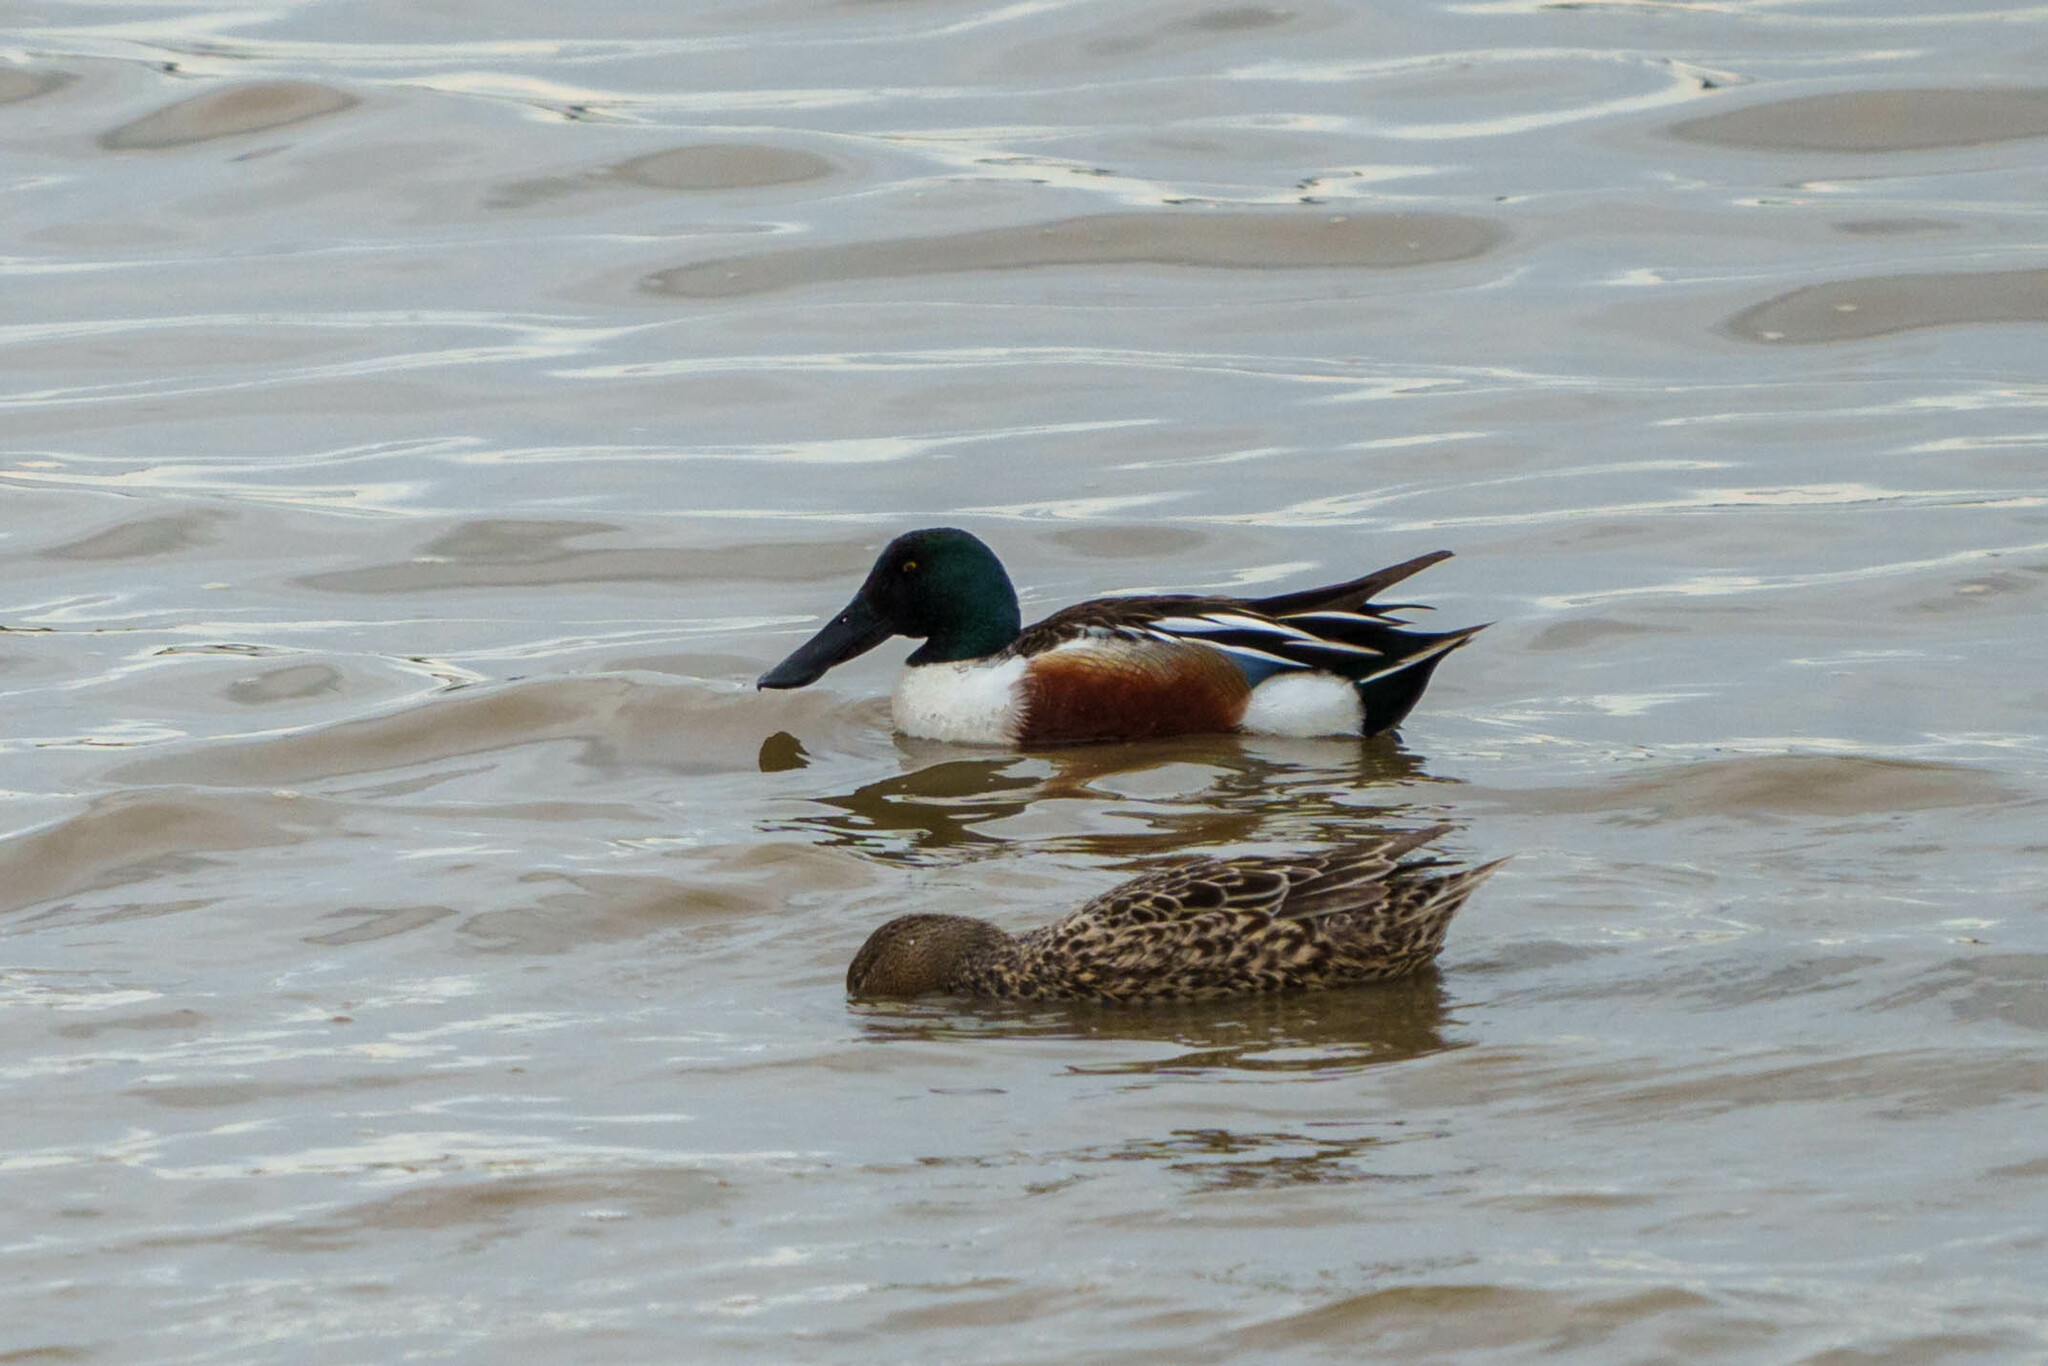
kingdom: Animalia
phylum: Chordata
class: Aves
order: Anseriformes
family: Anatidae
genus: Spatula
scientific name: Spatula clypeata
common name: Northern shoveler
